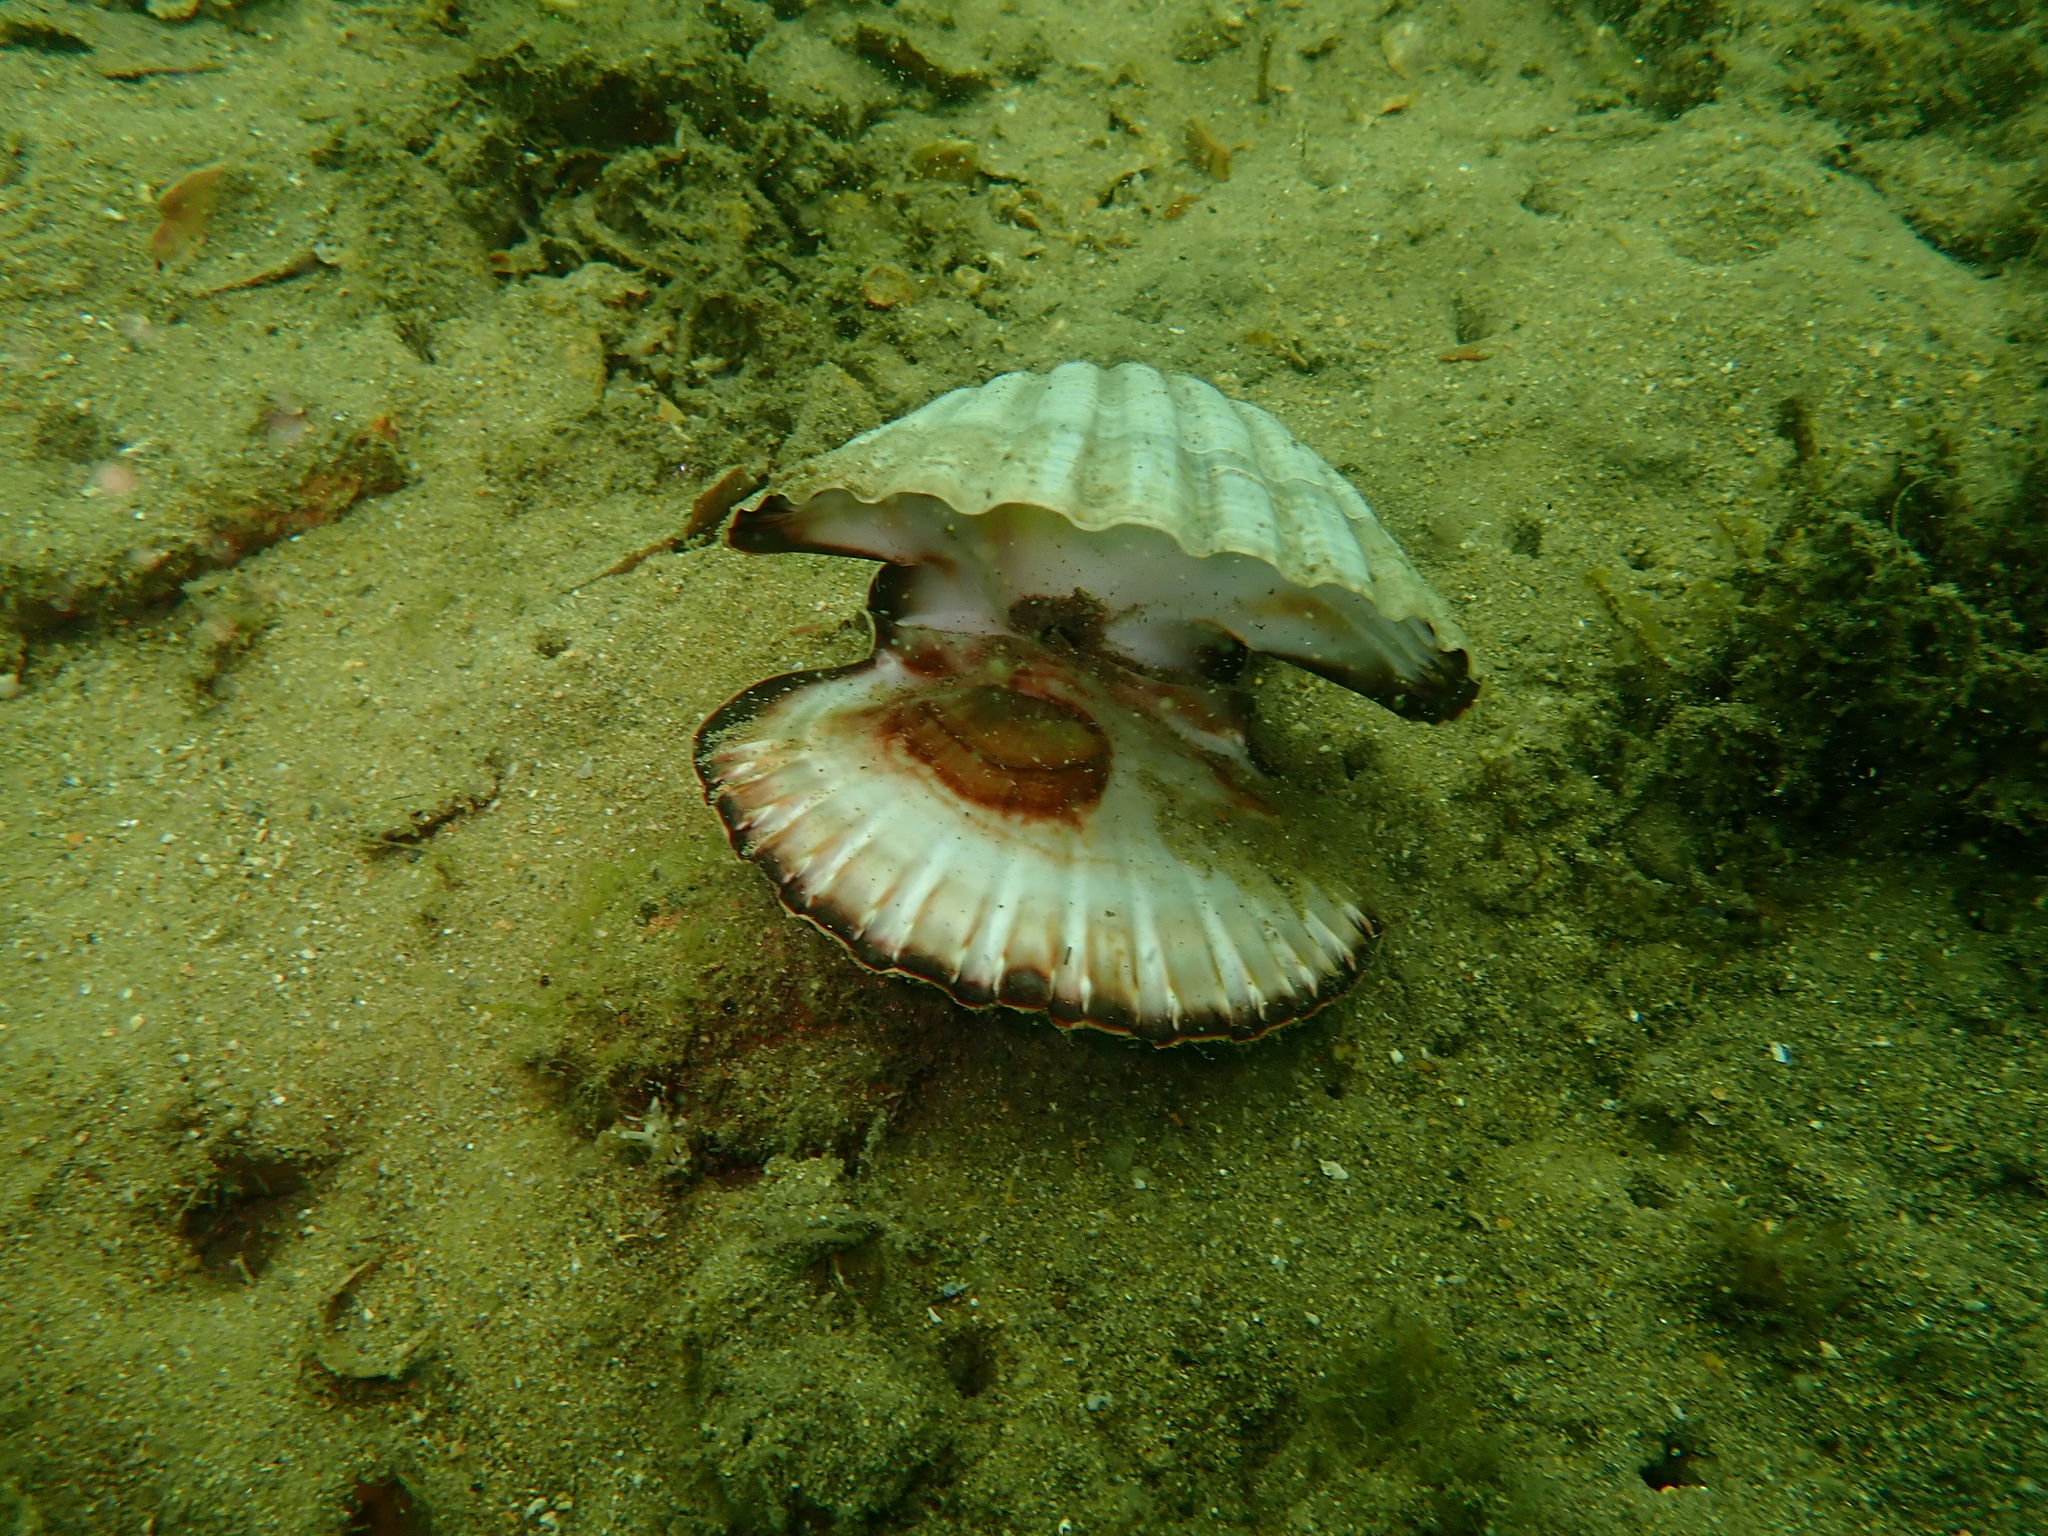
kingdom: Animalia
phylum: Mollusca
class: Bivalvia
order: Pectinida
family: Pectinidae
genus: Pecten
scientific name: Pecten fumatus
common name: Australian scallop
